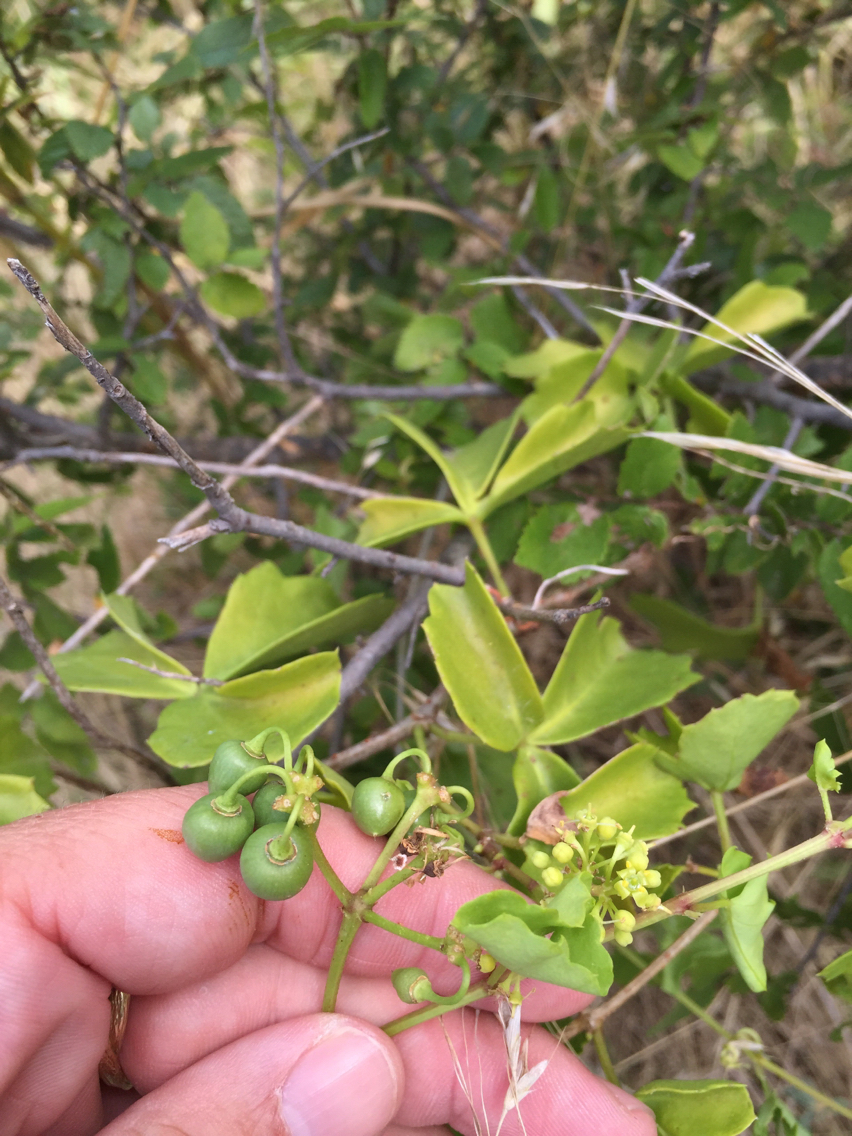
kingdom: Plantae
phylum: Tracheophyta
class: Magnoliopsida
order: Vitales
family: Vitaceae
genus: Cissus
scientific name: Cissus trifoliata
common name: Vine-sorrel
